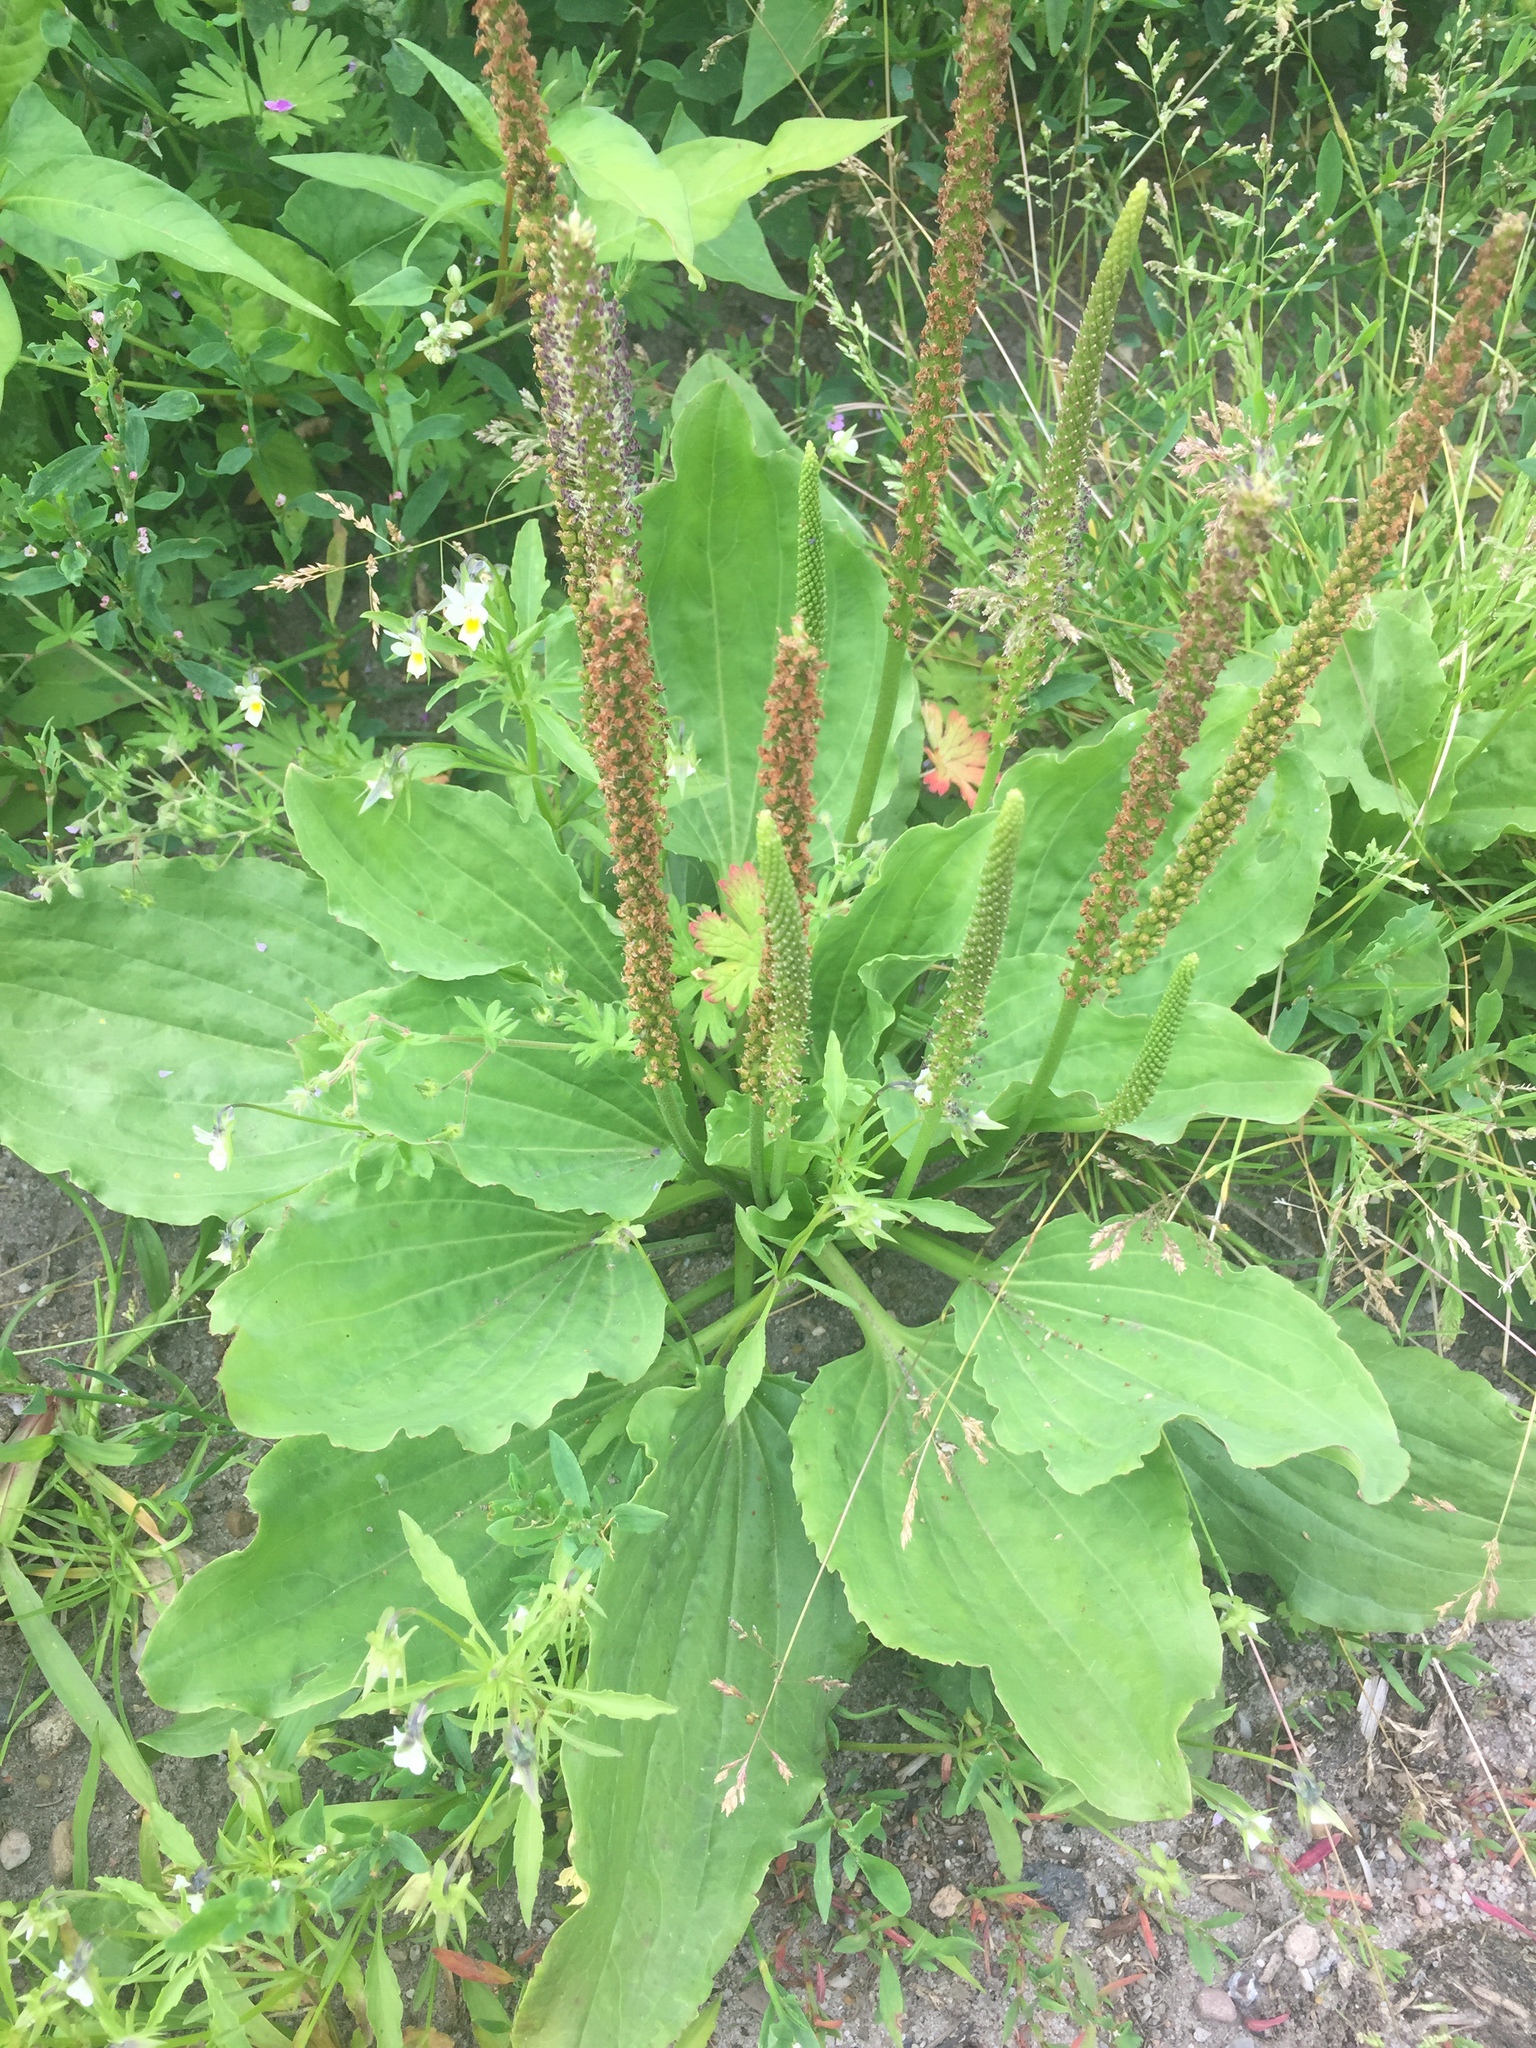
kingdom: Plantae
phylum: Tracheophyta
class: Magnoliopsida
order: Lamiales
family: Plantaginaceae
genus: Plantago
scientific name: Plantago major
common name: Common plantain
